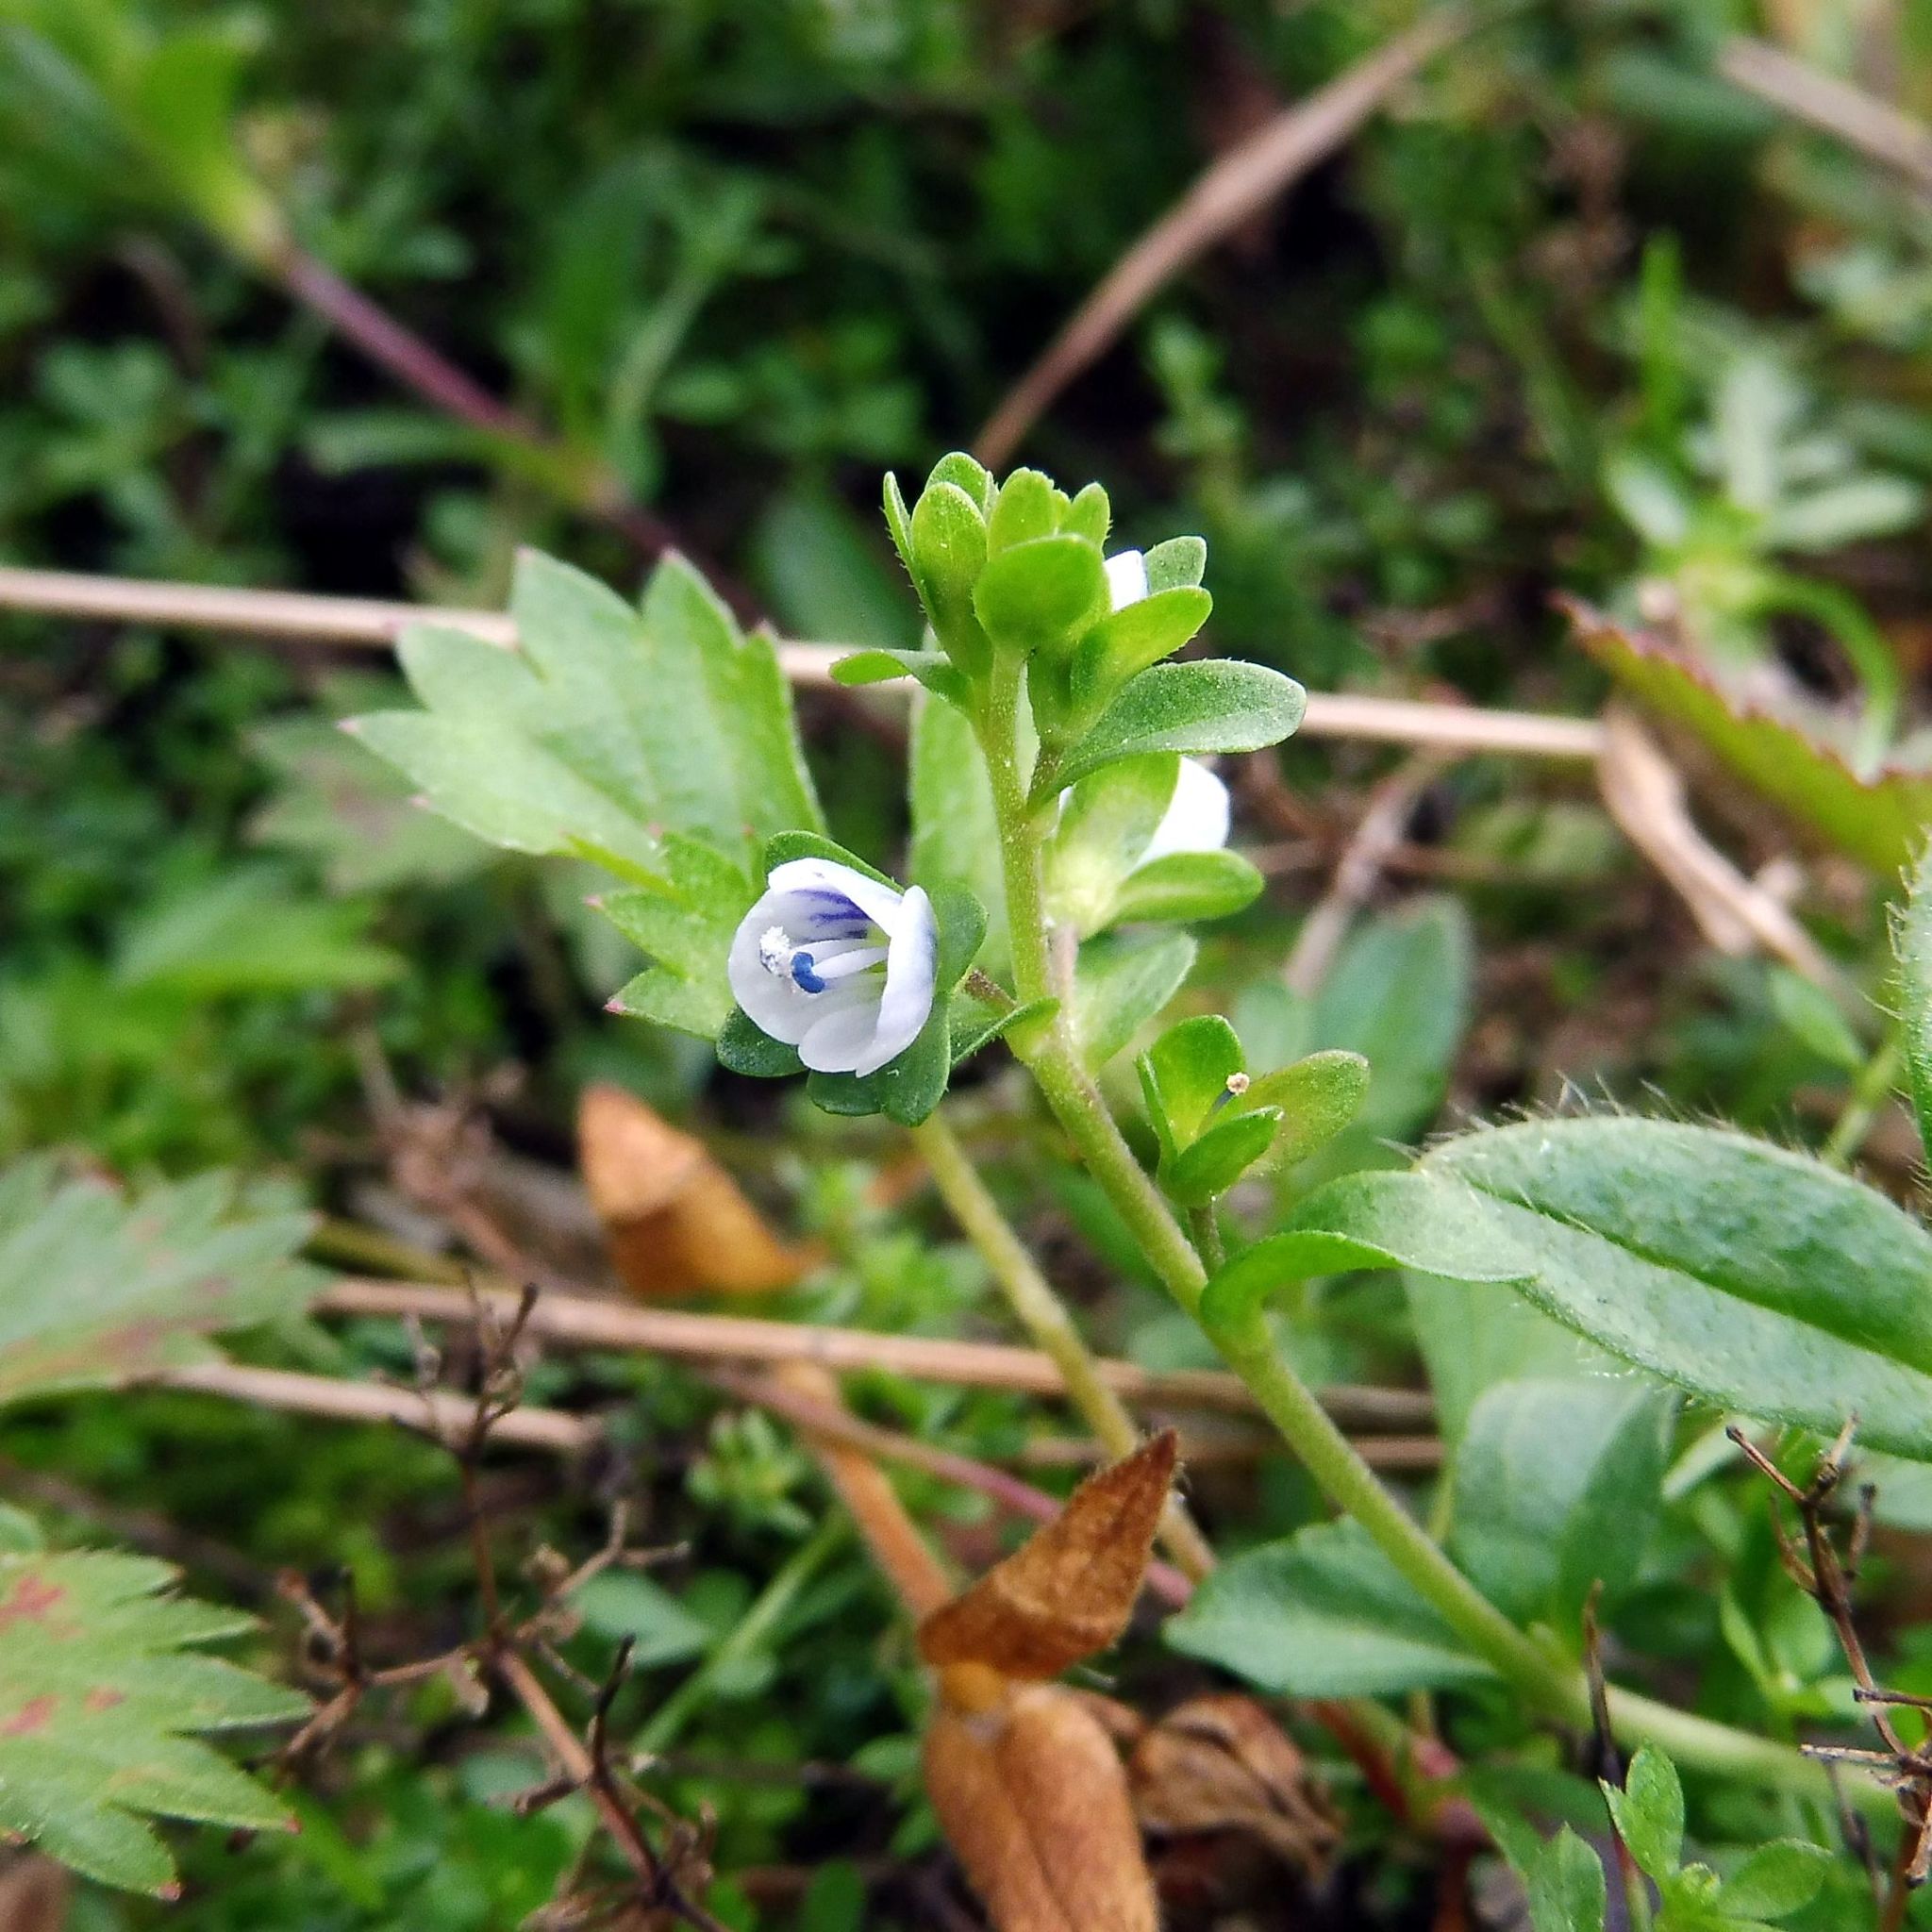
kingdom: Plantae
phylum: Tracheophyta
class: Magnoliopsida
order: Lamiales
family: Plantaginaceae
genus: Veronica
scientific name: Veronica serpyllifolia
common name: Thyme-leaved speedwell
